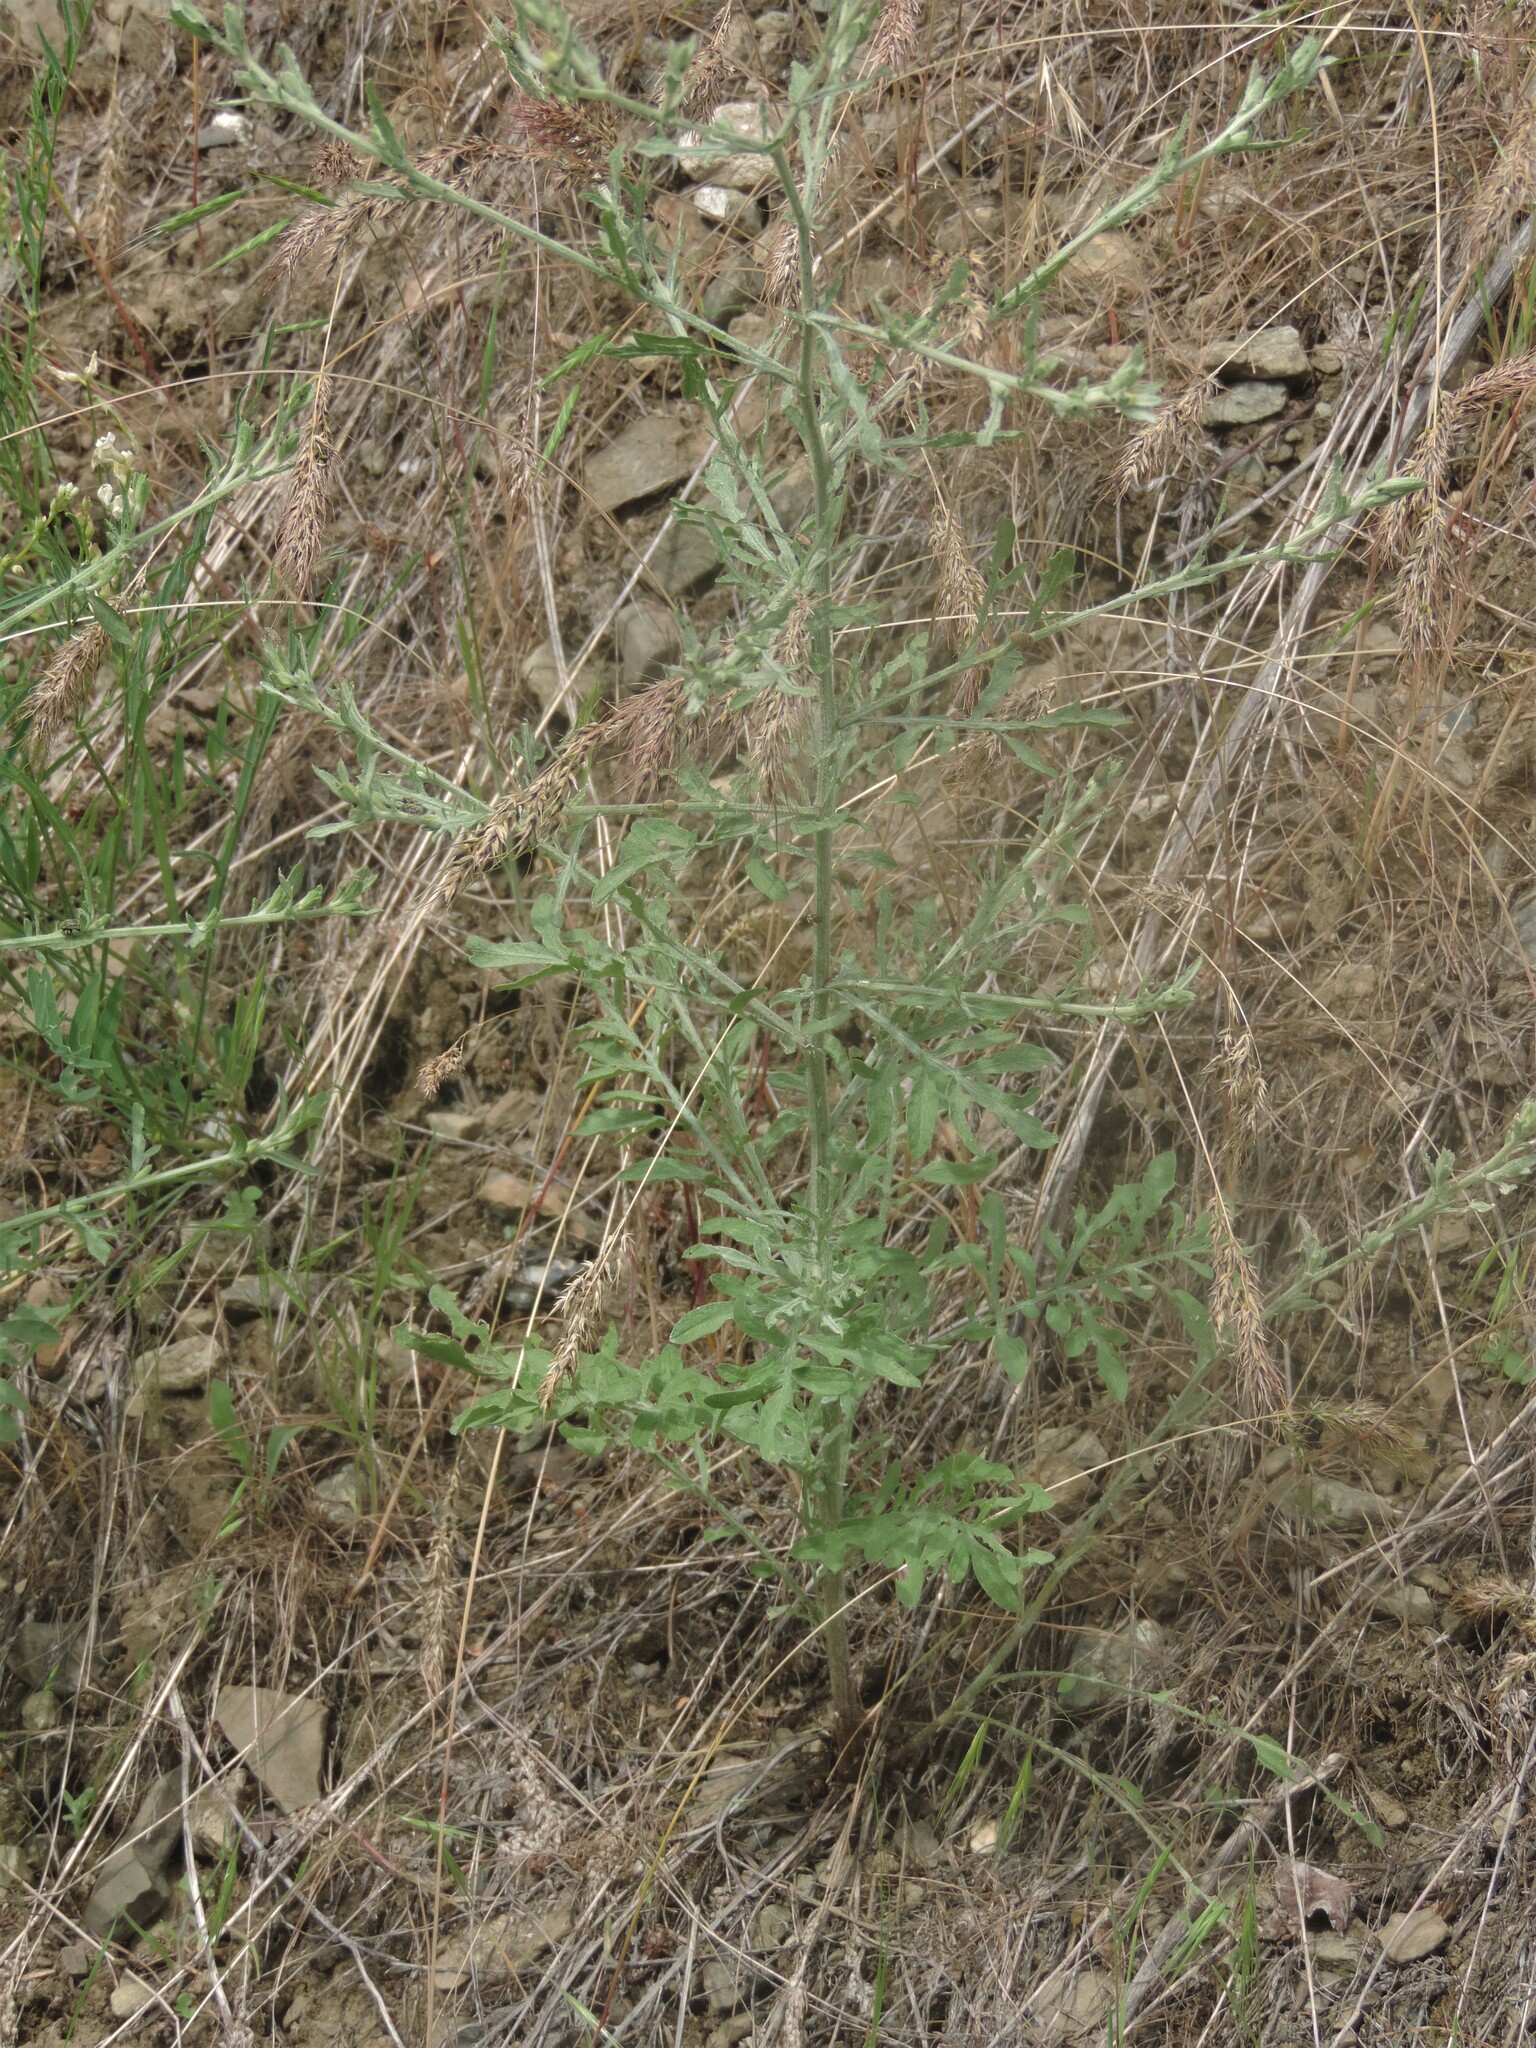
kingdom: Plantae
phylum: Tracheophyta
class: Magnoliopsida
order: Asterales
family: Asteraceae
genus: Centaurea
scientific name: Centaurea diffusa
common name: Diffuse knapweed
